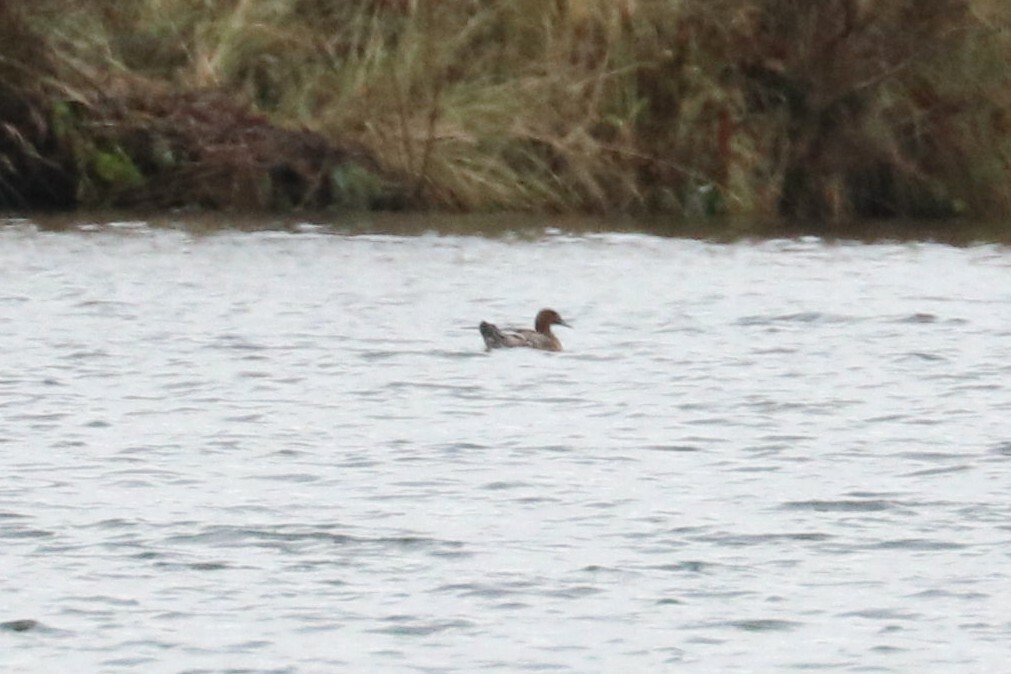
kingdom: Animalia
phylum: Chordata
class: Aves
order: Anseriformes
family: Anatidae
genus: Mareca
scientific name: Mareca penelope
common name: Eurasian wigeon
